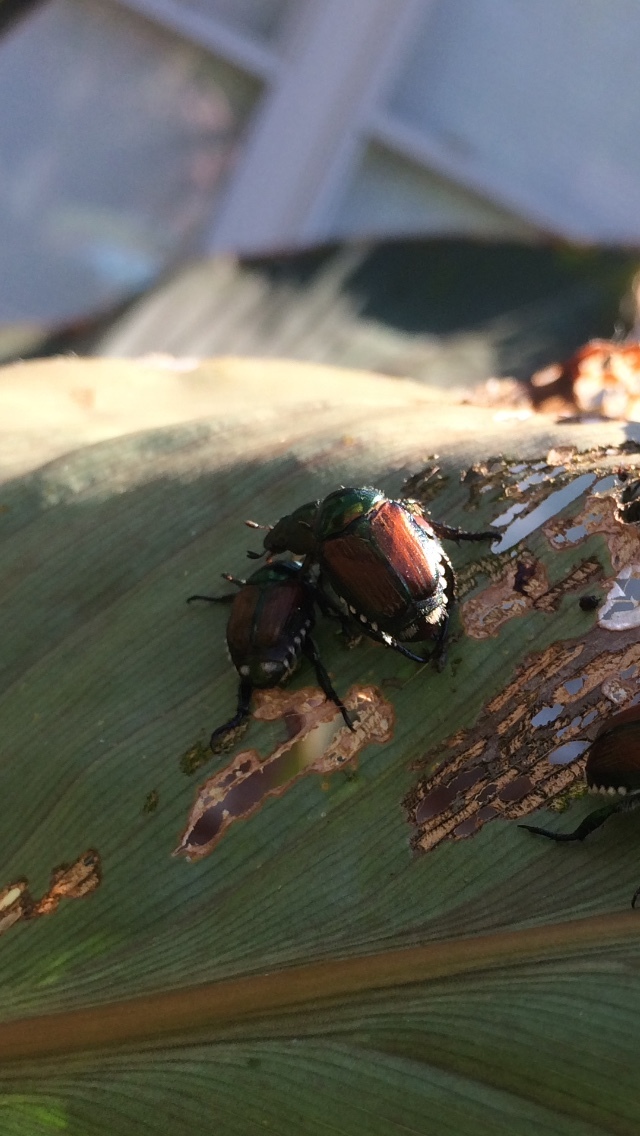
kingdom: Animalia
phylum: Arthropoda
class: Insecta
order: Coleoptera
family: Scarabaeidae
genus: Popillia
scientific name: Popillia japonica
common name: Japanese beetle
